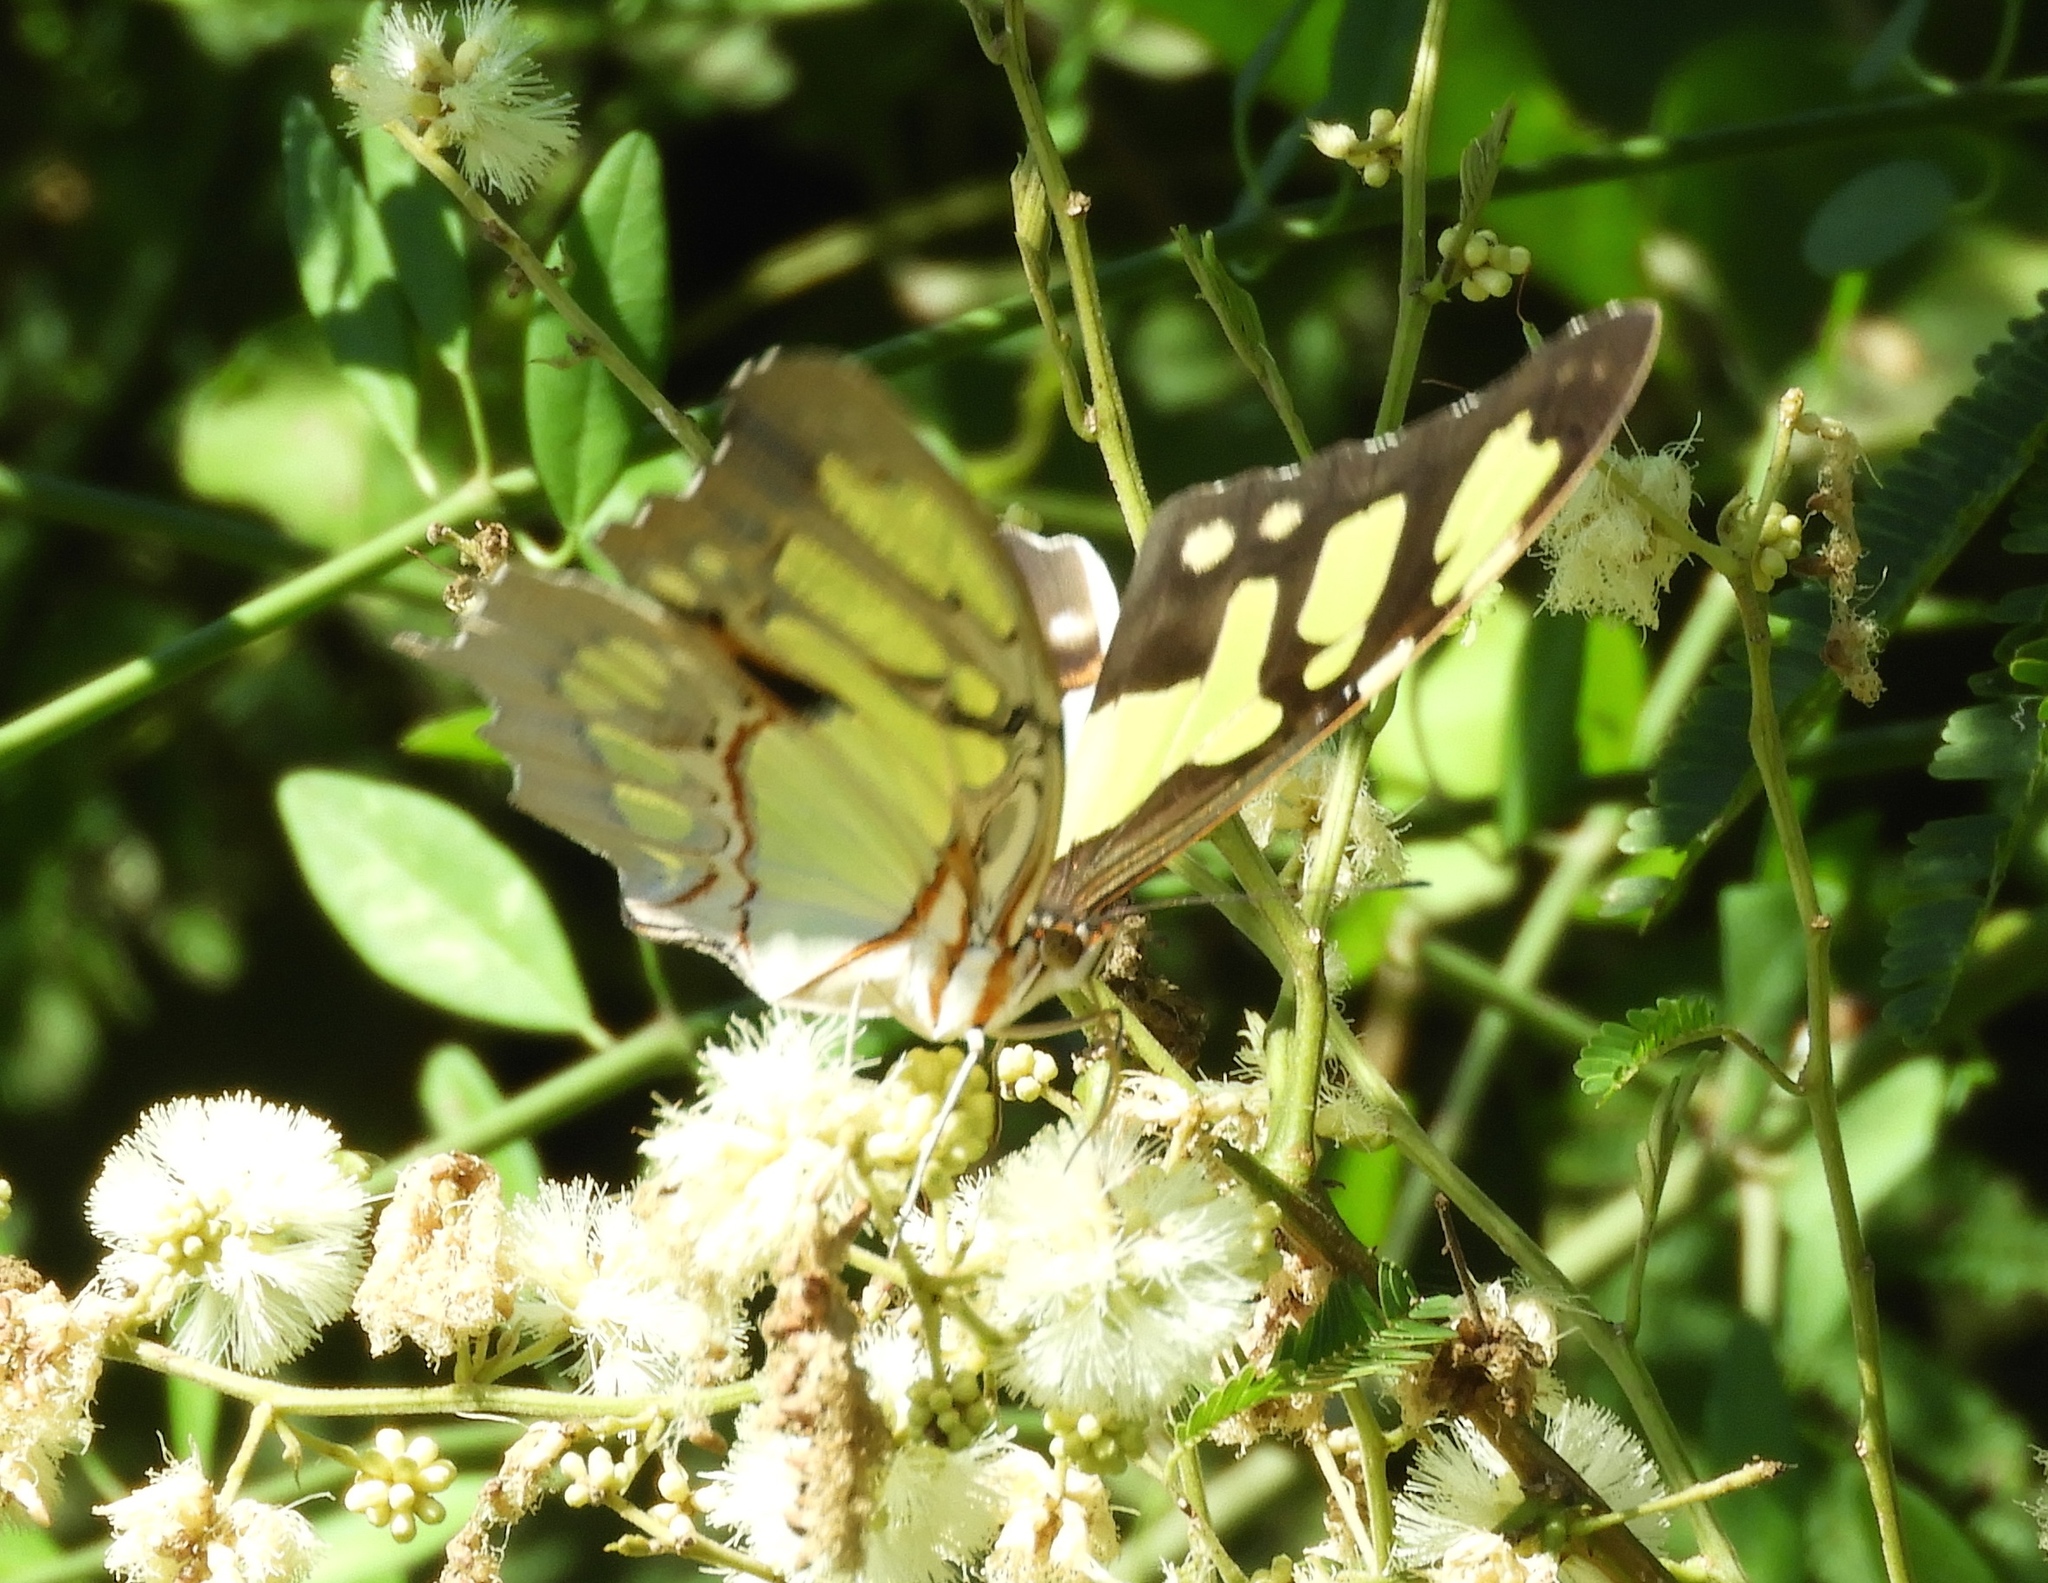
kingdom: Animalia
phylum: Arthropoda
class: Insecta
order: Lepidoptera
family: Nymphalidae
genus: Siproeta
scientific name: Siproeta stelenes
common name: Malachite
